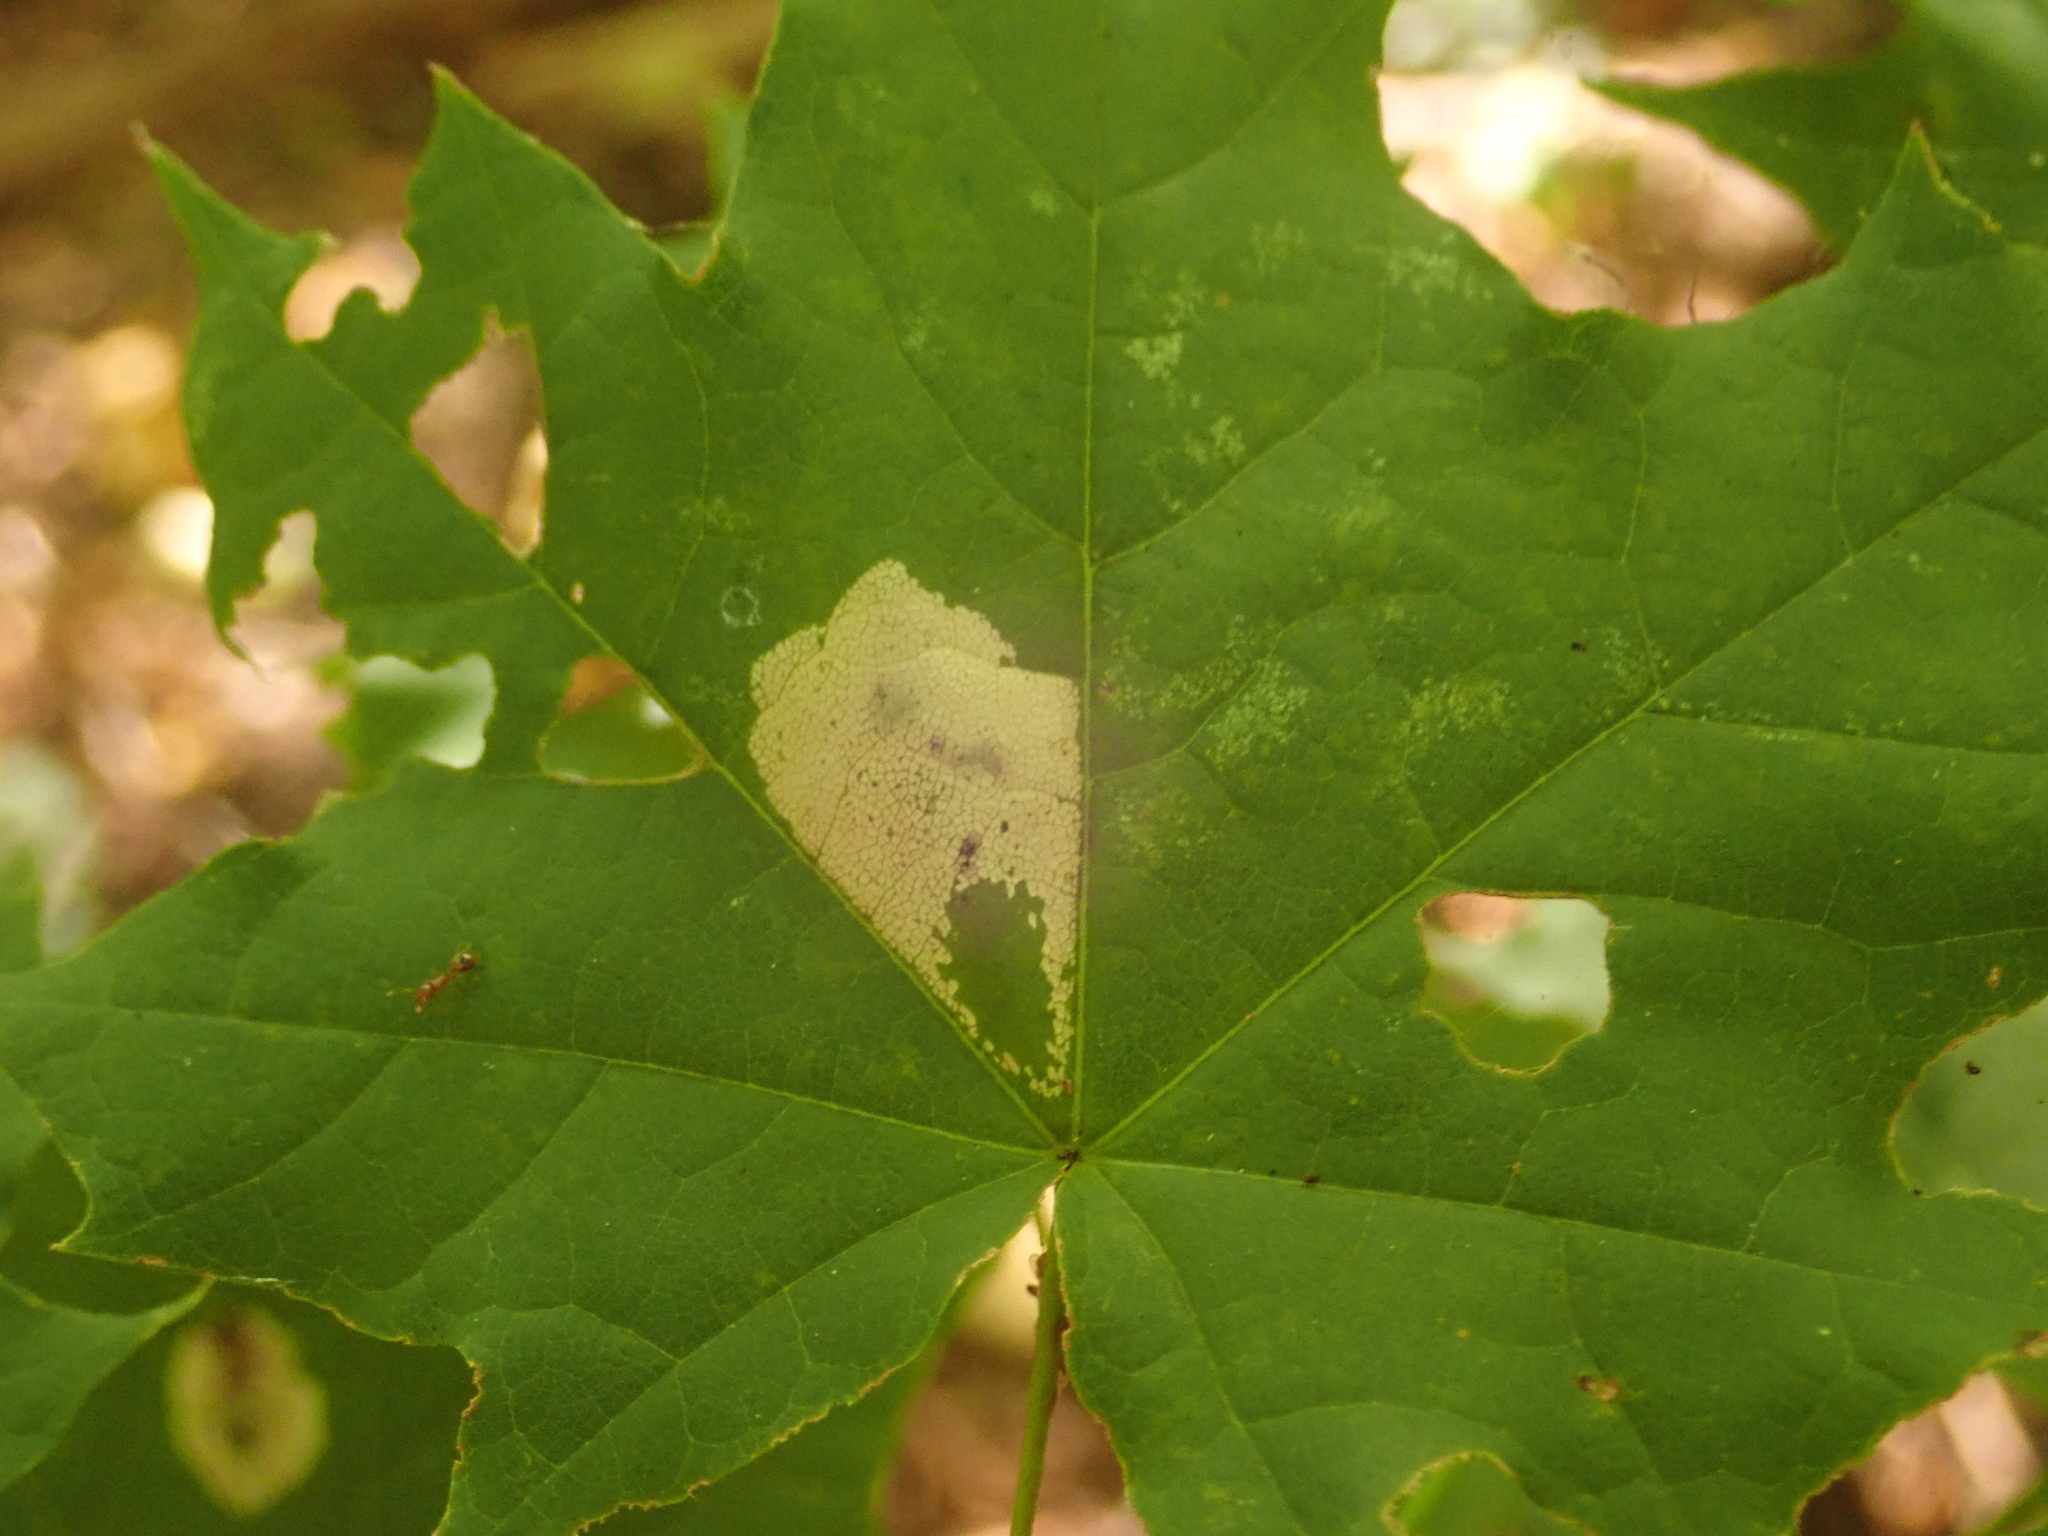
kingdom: Animalia
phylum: Arthropoda
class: Insecta
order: Lepidoptera
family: Gracillariidae
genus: Phyllonorycter
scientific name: Phyllonorycter joannisi
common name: White-bodied midget
